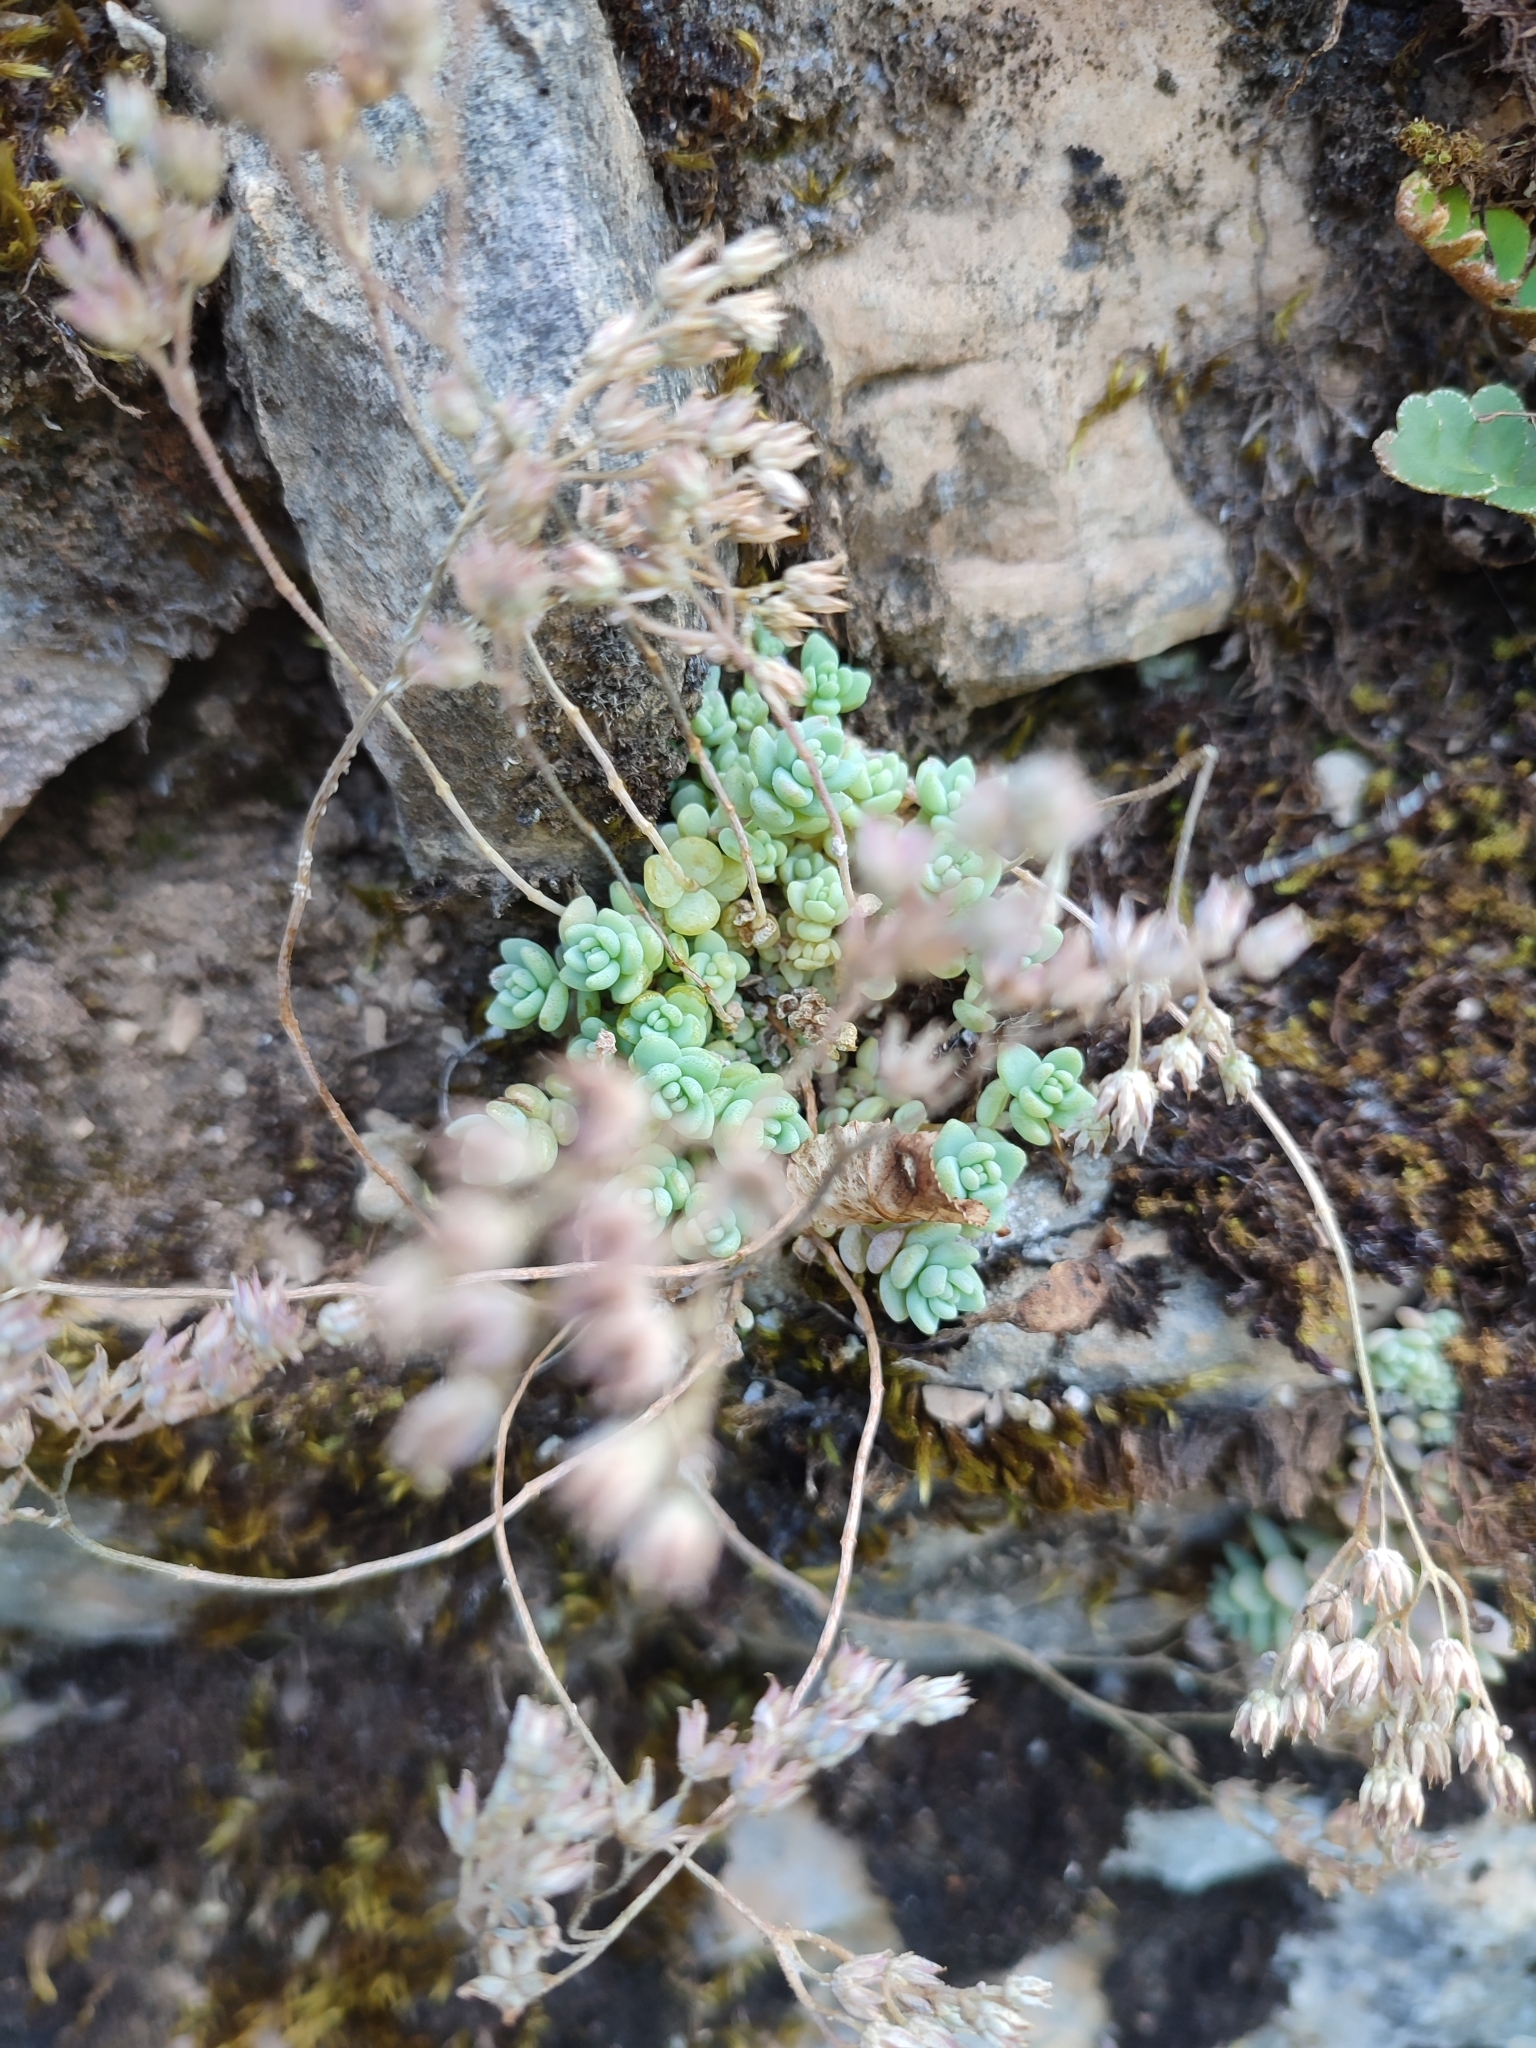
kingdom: Plantae
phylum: Tracheophyta
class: Magnoliopsida
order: Saxifragales
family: Crassulaceae
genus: Sedum
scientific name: Sedum dasyphyllum
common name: Thick-leaf stonecrop
